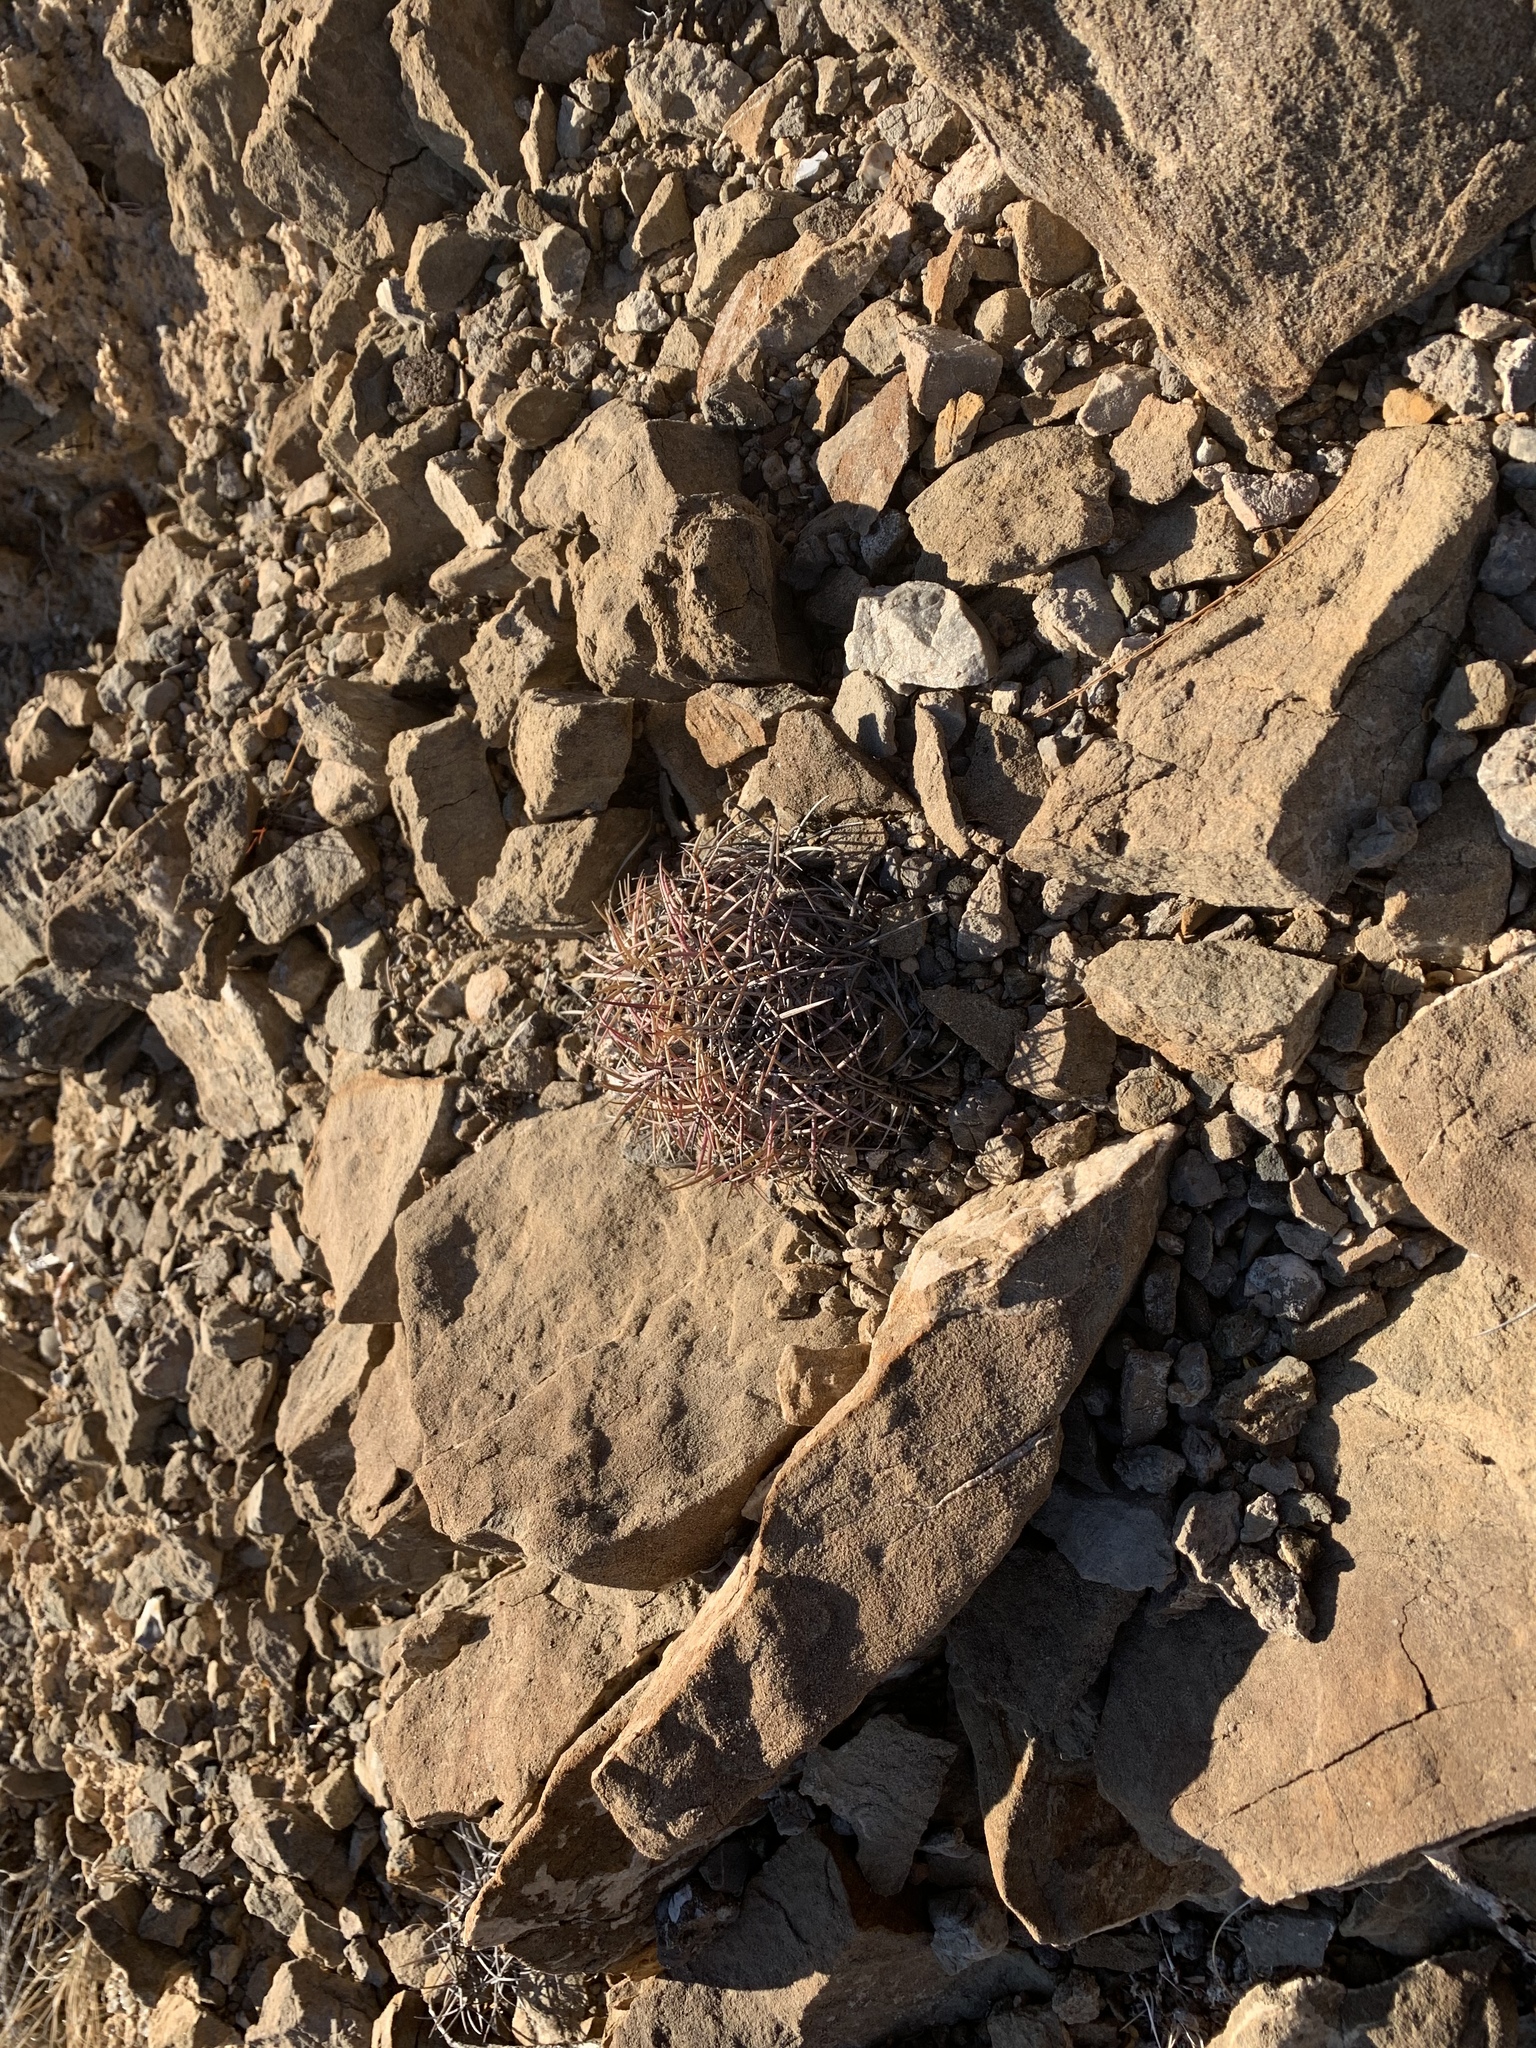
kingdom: Plantae
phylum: Tracheophyta
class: Magnoliopsida
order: Caryophyllales
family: Cactaceae
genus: Echinocactus
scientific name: Echinocactus horizonthalonius
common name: Devilshead
